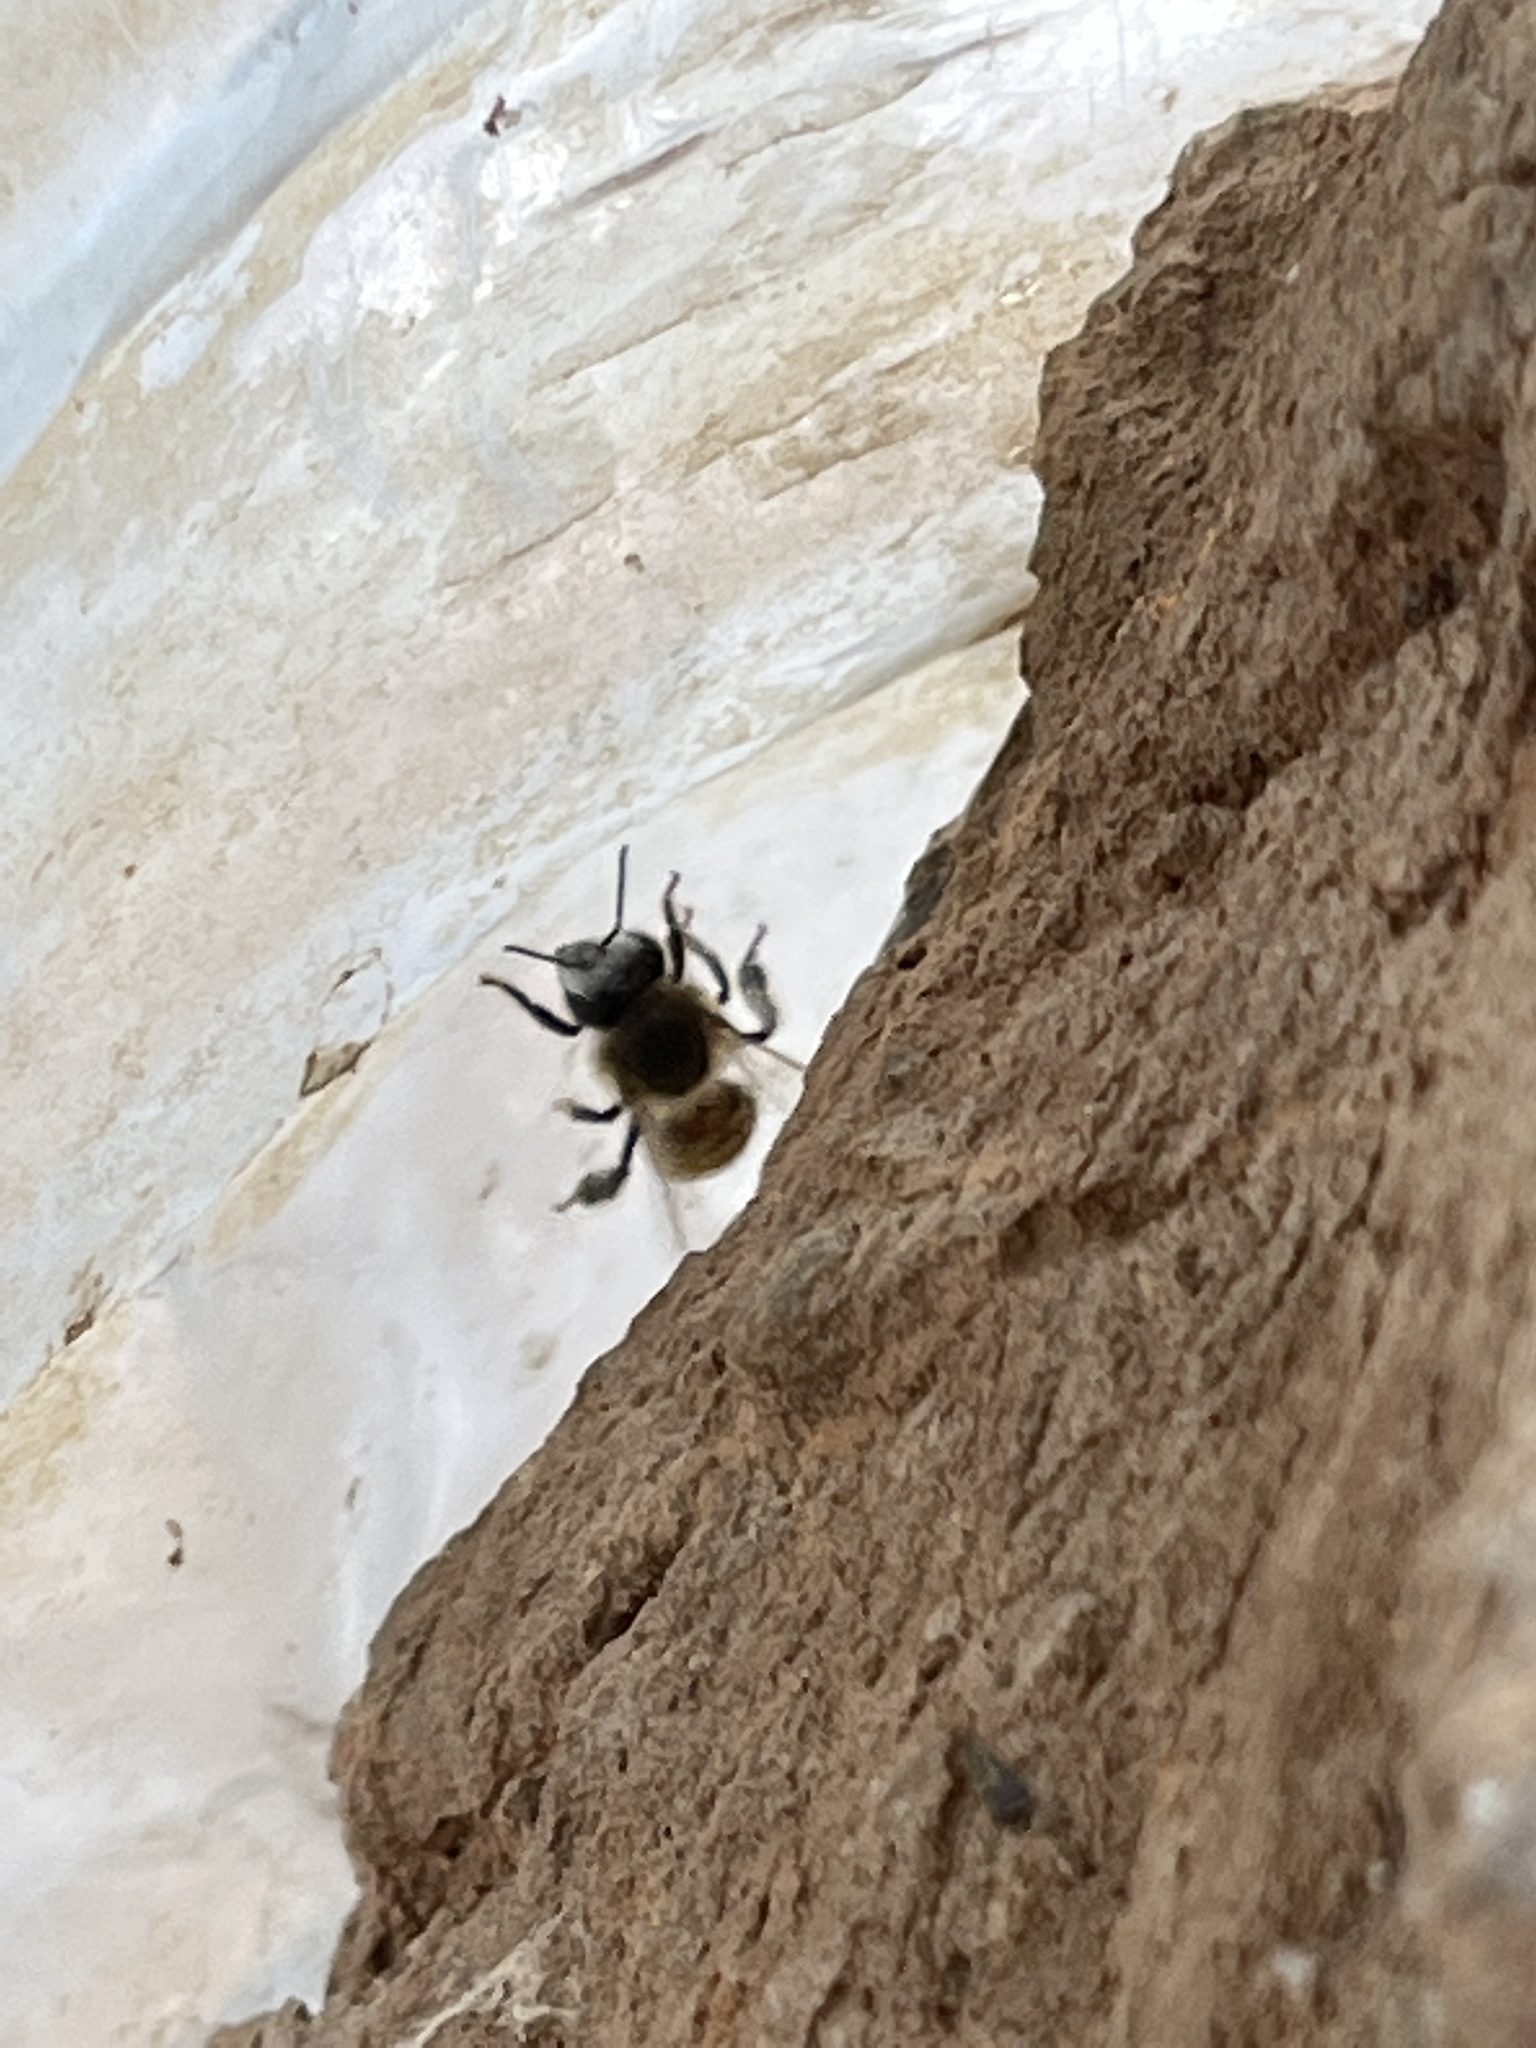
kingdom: Animalia
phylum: Arthropoda
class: Insecta
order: Hymenoptera
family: Apidae
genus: Apis
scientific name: Apis mellifera
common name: Honey bee
